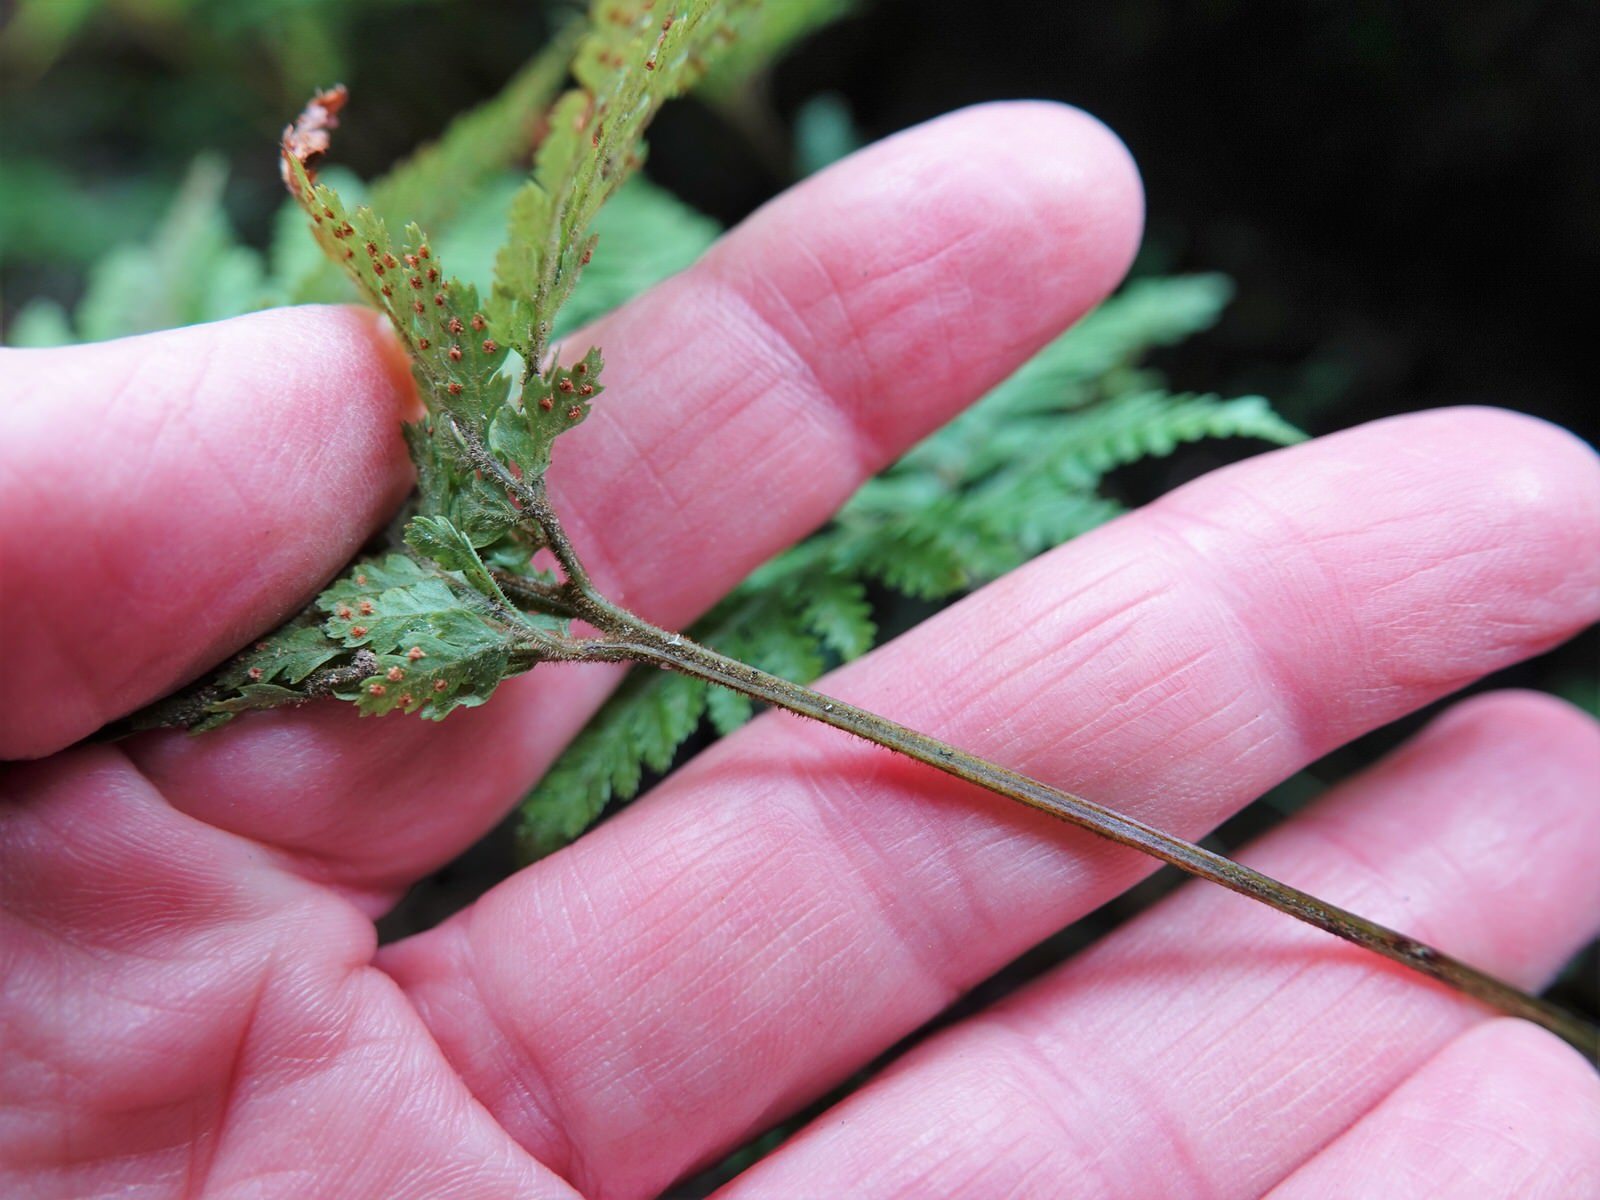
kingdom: Plantae
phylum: Tracheophyta
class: Polypodiopsida
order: Polypodiales
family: Dryopteridaceae
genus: Parapolystichum
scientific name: Parapolystichum glabellum
